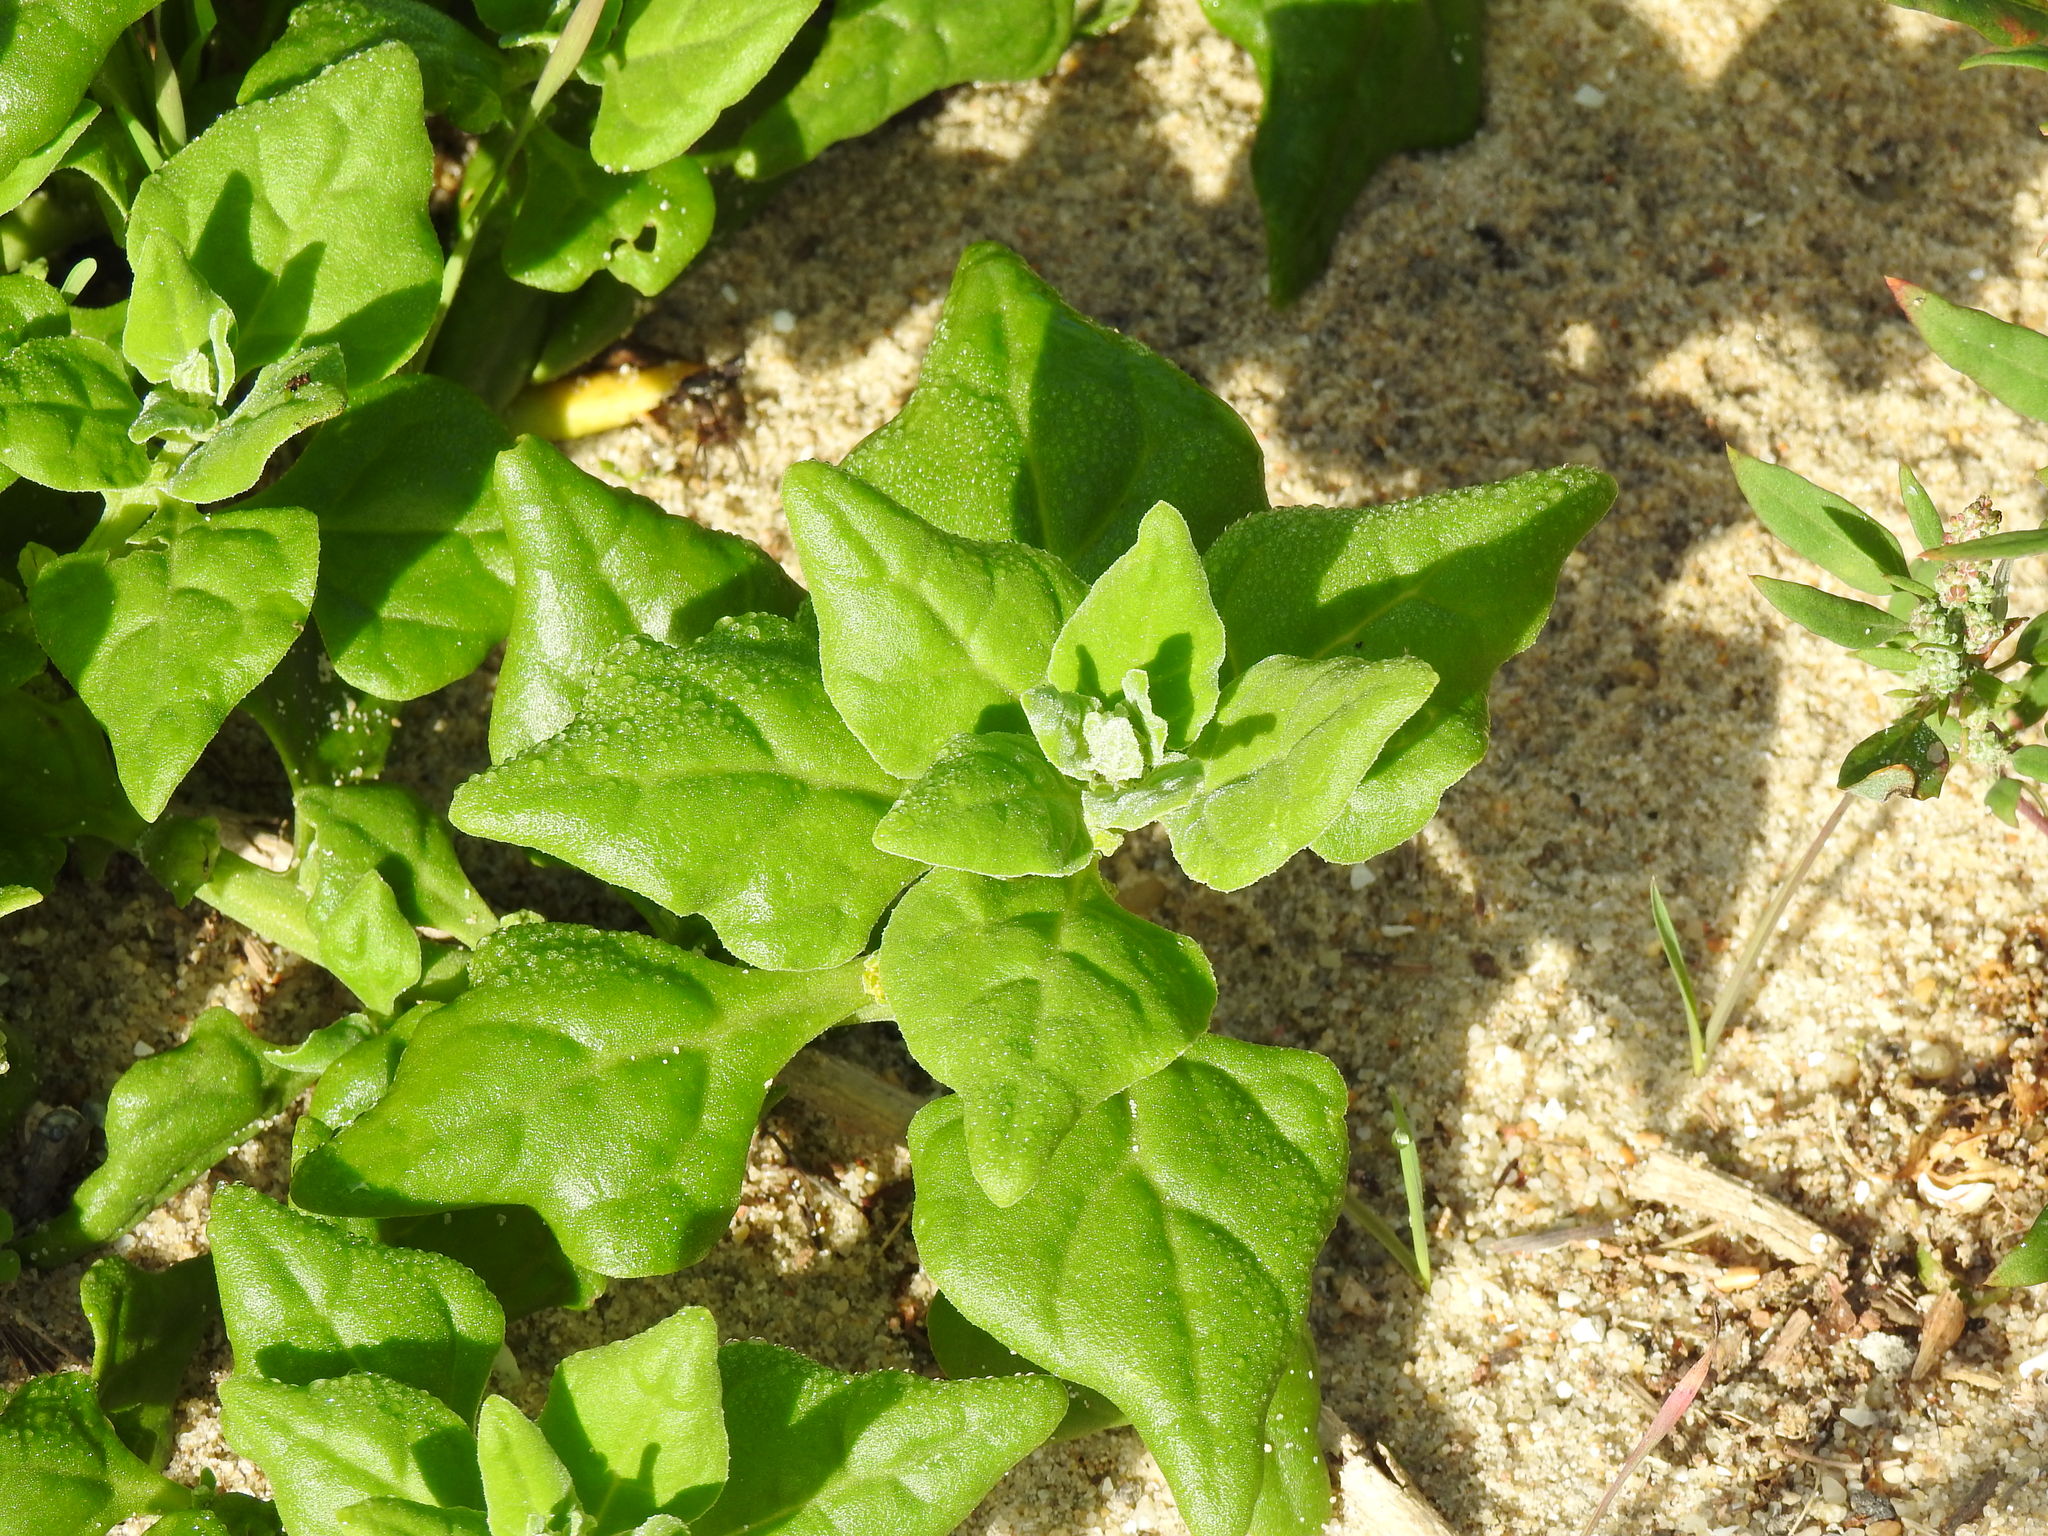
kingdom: Plantae
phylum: Tracheophyta
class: Magnoliopsida
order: Caryophyllales
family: Aizoaceae
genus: Tetragonia
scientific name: Tetragonia tetragonoides
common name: New zealand-spinach
